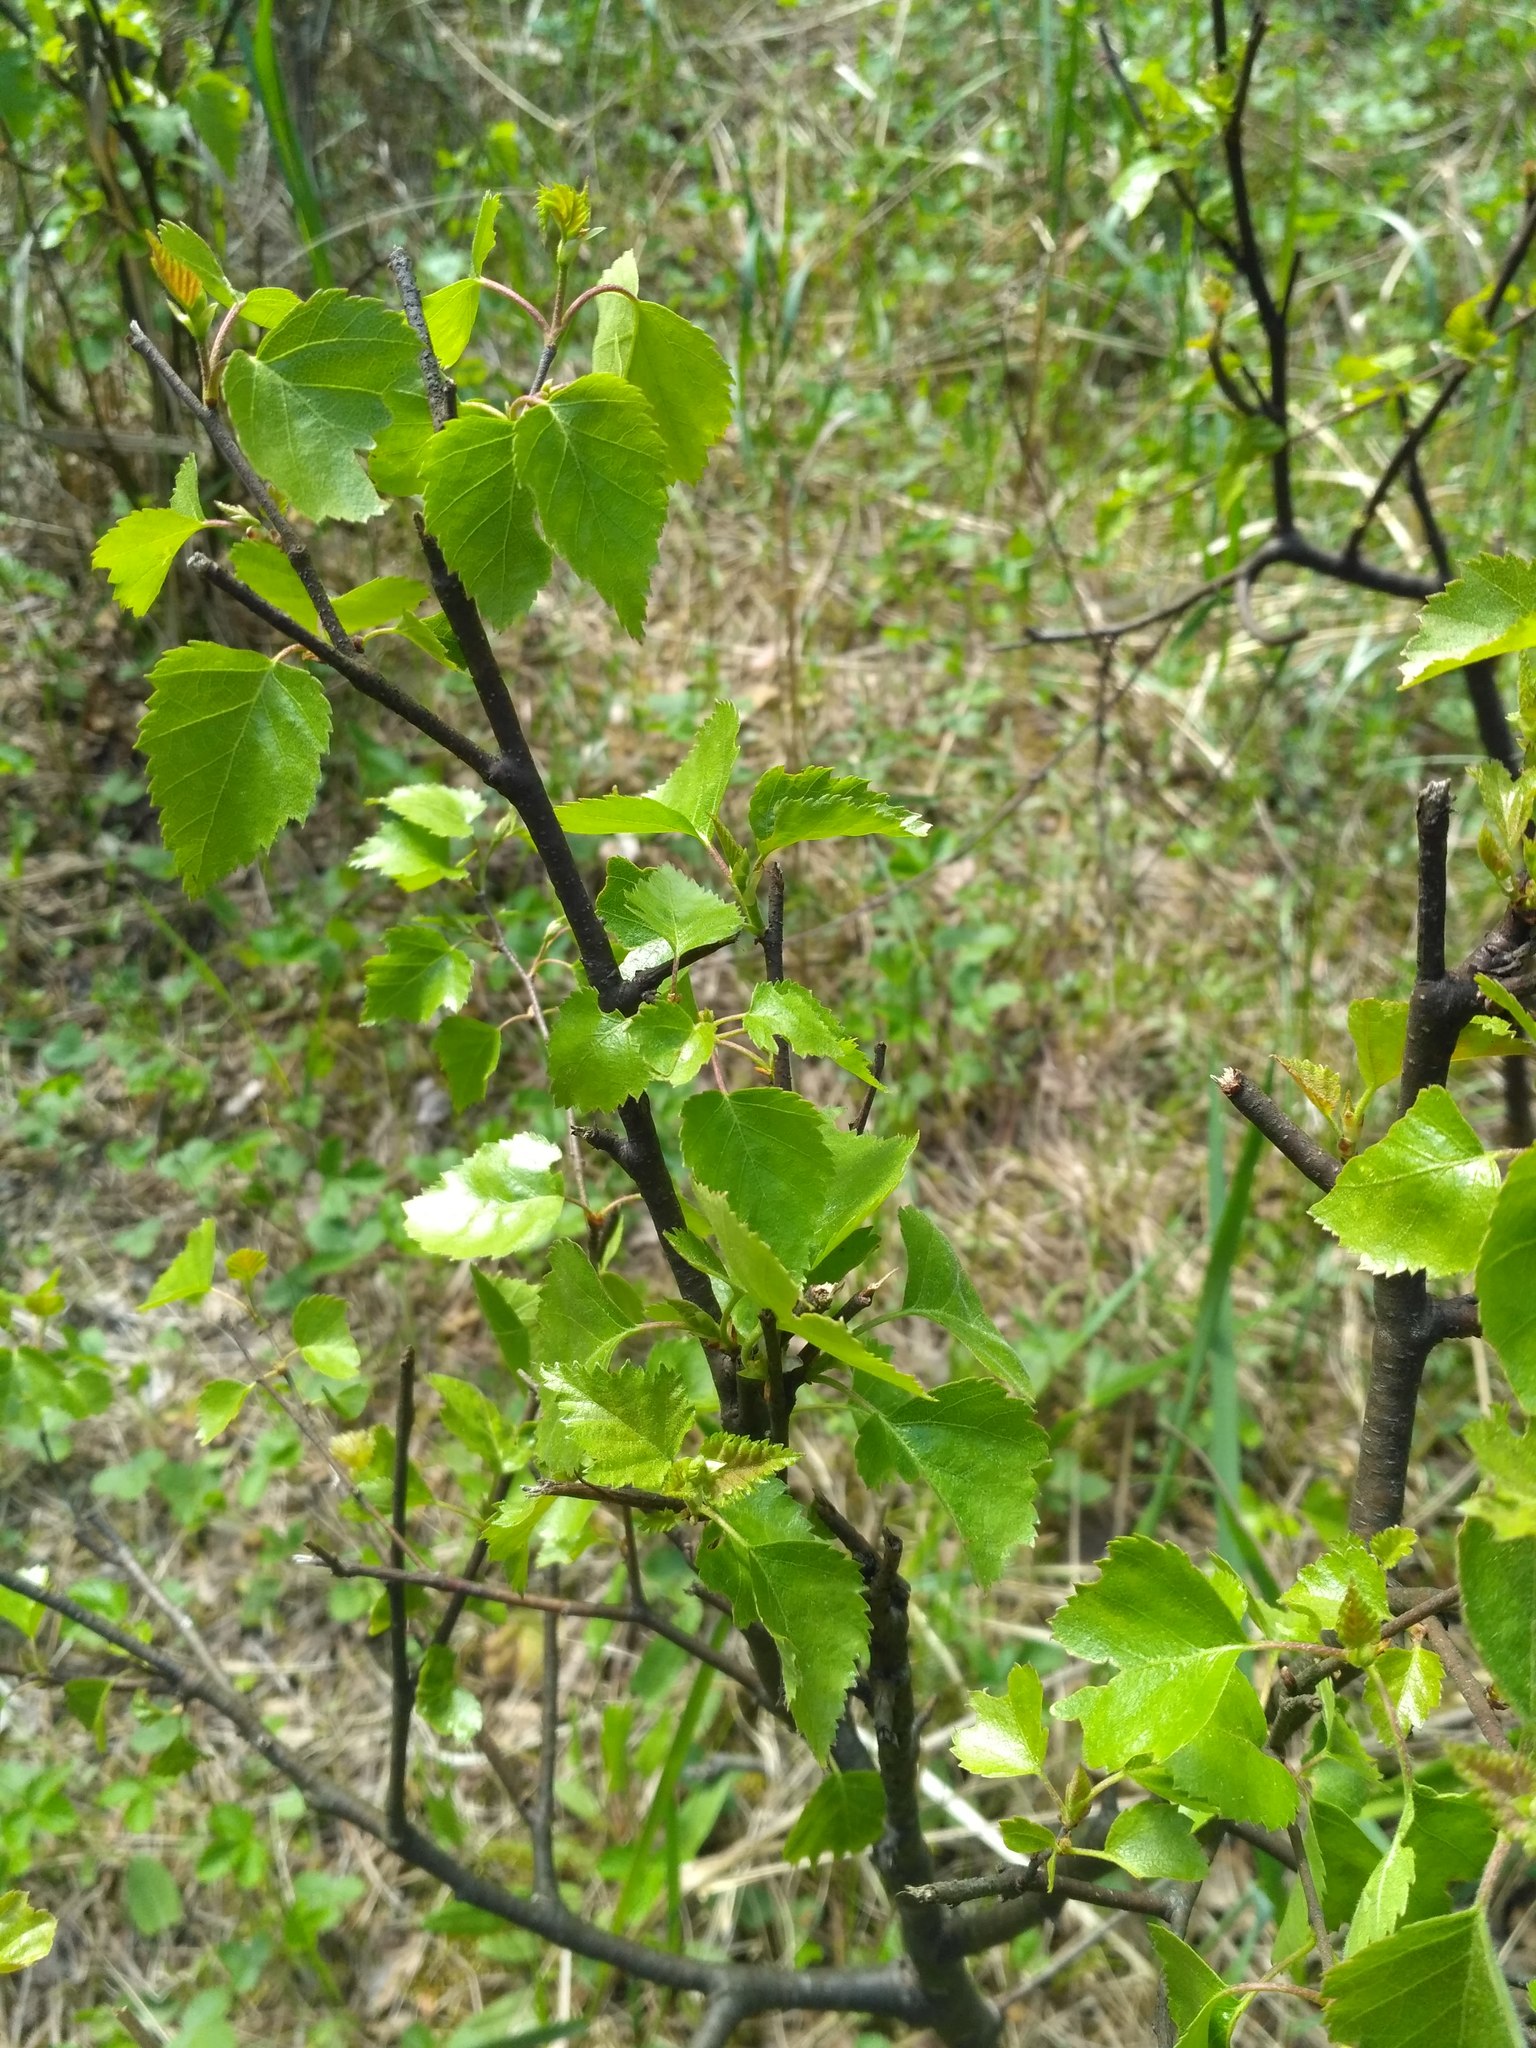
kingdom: Plantae
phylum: Tracheophyta
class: Magnoliopsida
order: Fagales
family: Betulaceae
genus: Betula
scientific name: Betula pendula
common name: Silver birch
